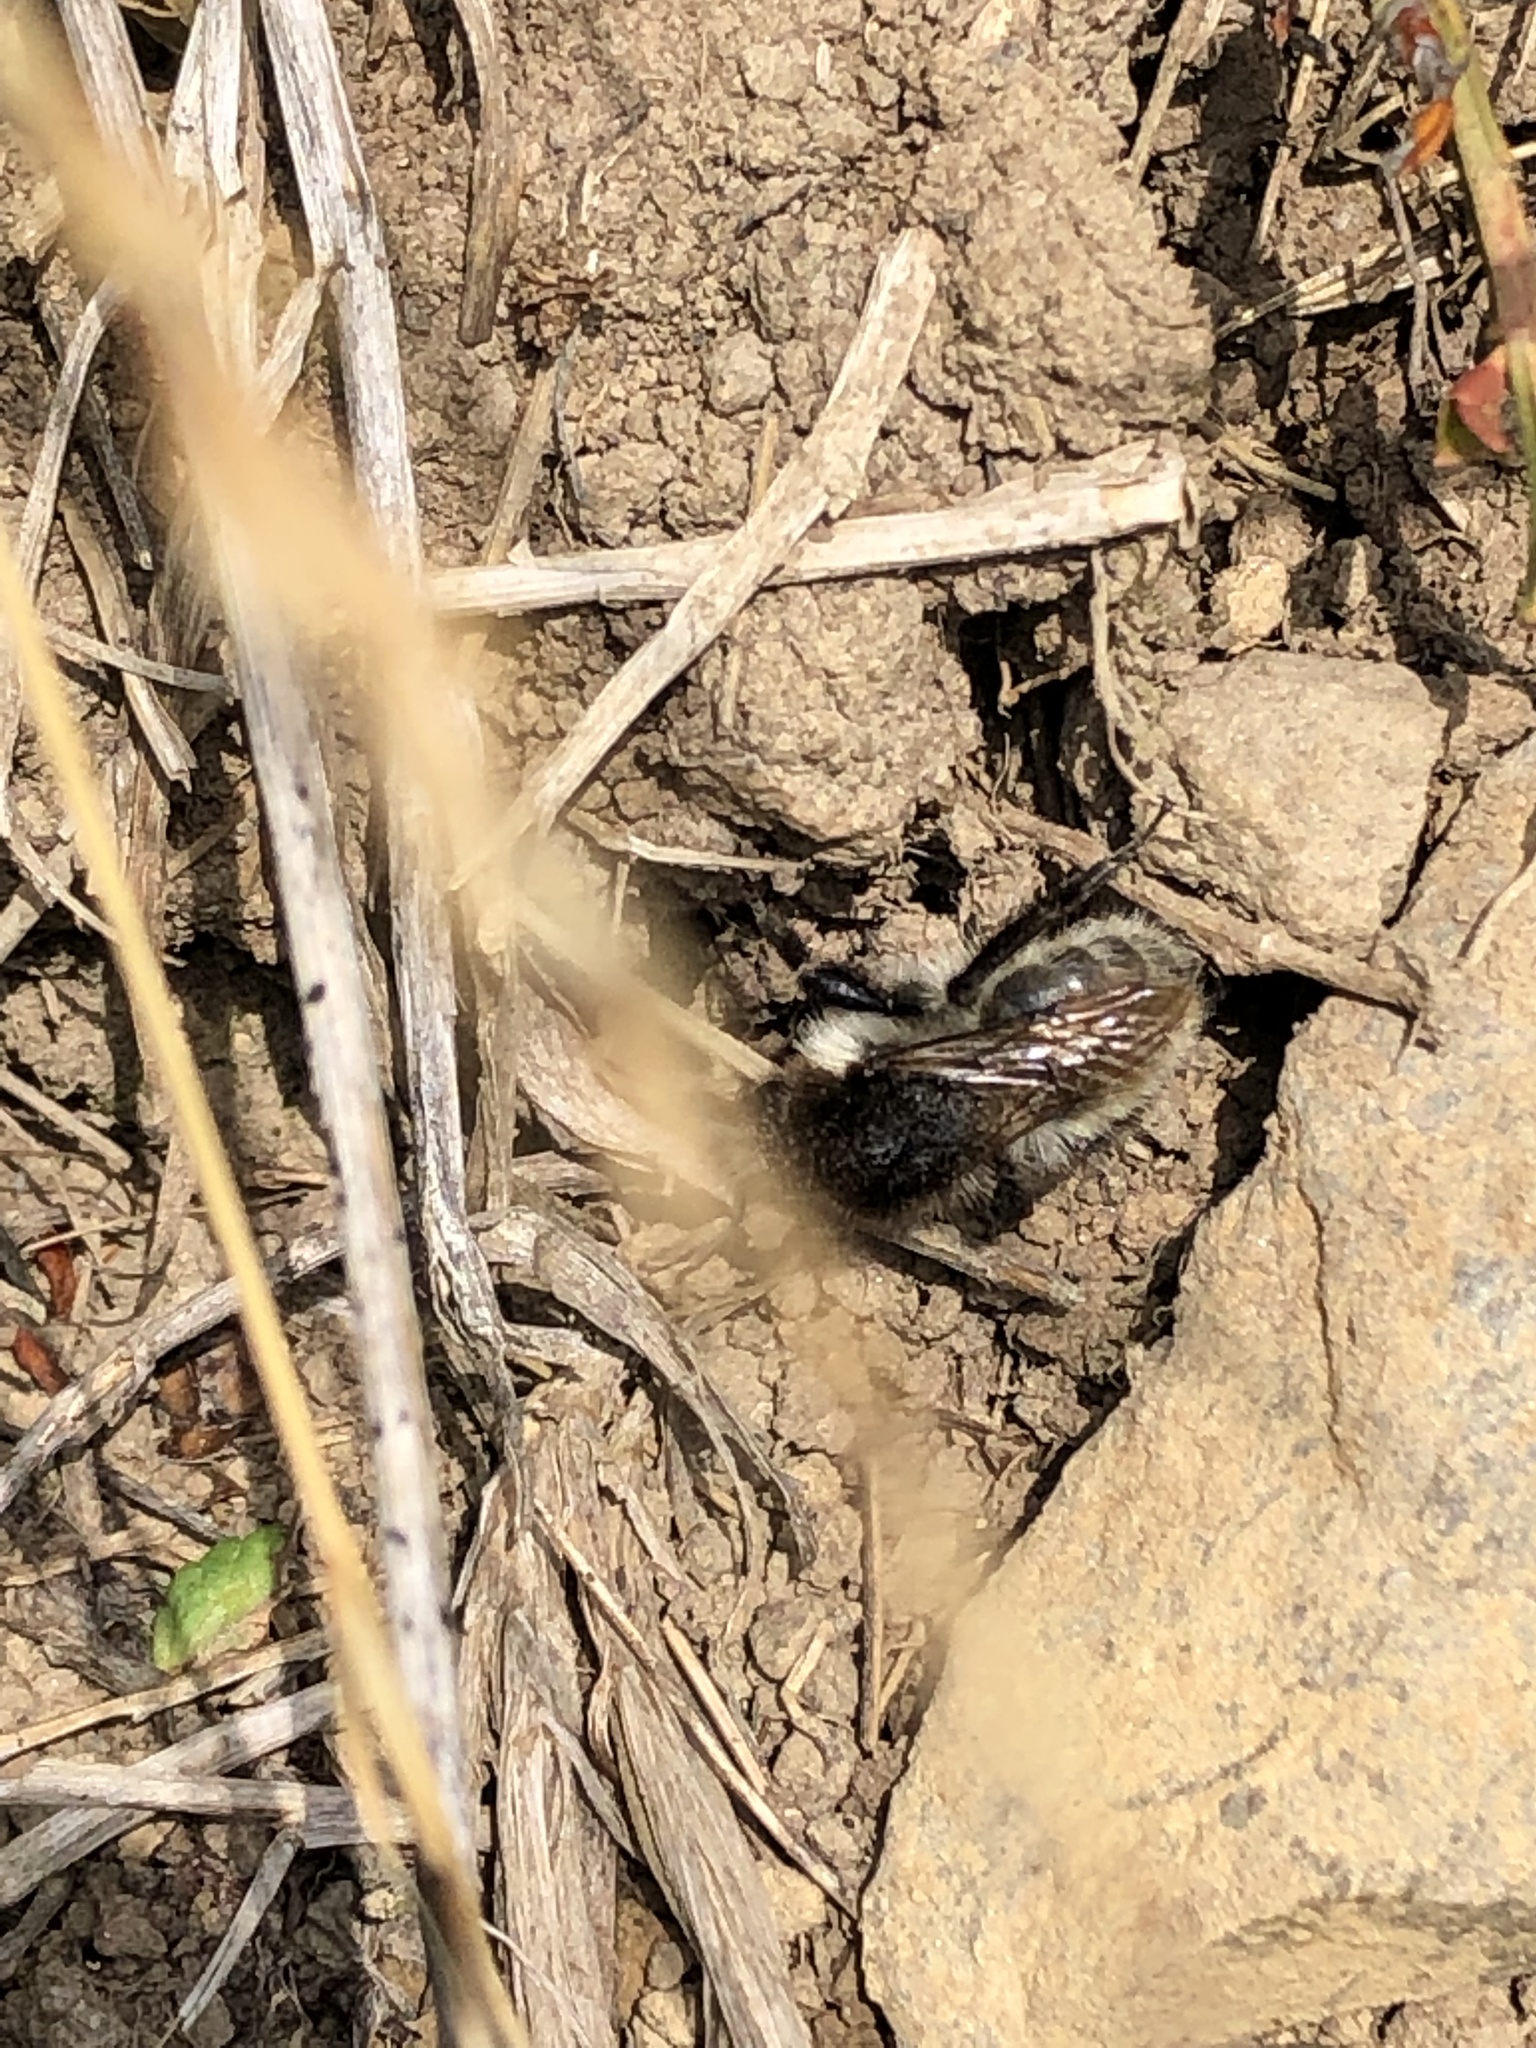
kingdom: Animalia
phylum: Arthropoda
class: Insecta
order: Hymenoptera
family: Apidae
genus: Bombus
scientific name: Bombus humilis
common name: Brown-banded carder-bee
